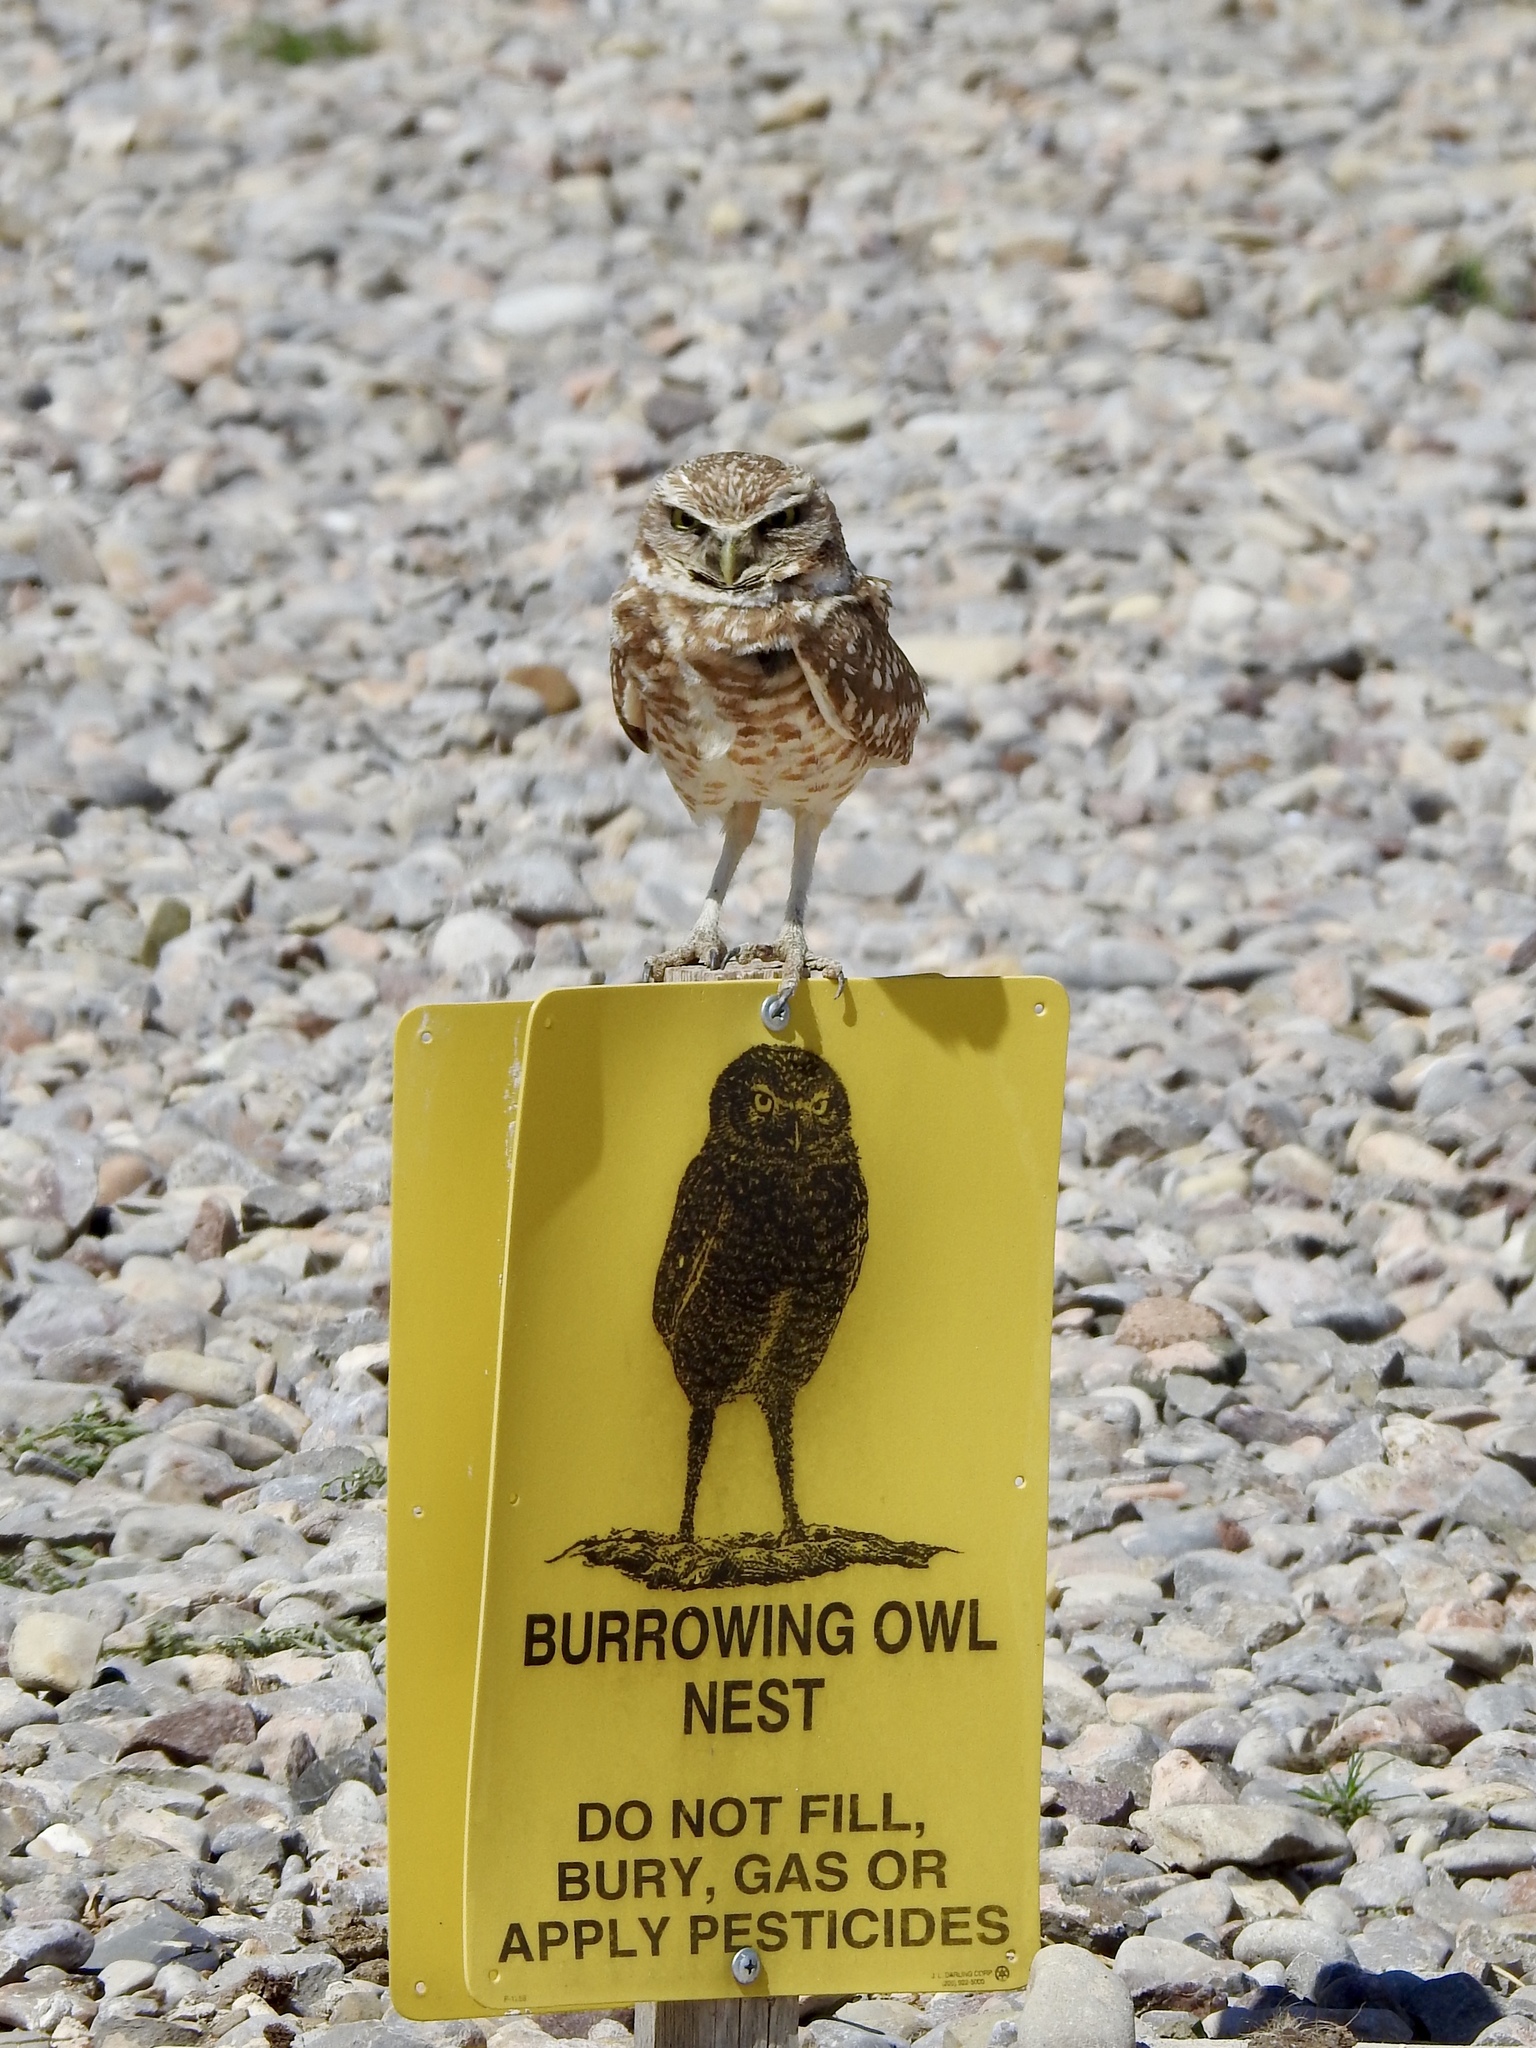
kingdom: Animalia
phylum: Chordata
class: Aves
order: Strigiformes
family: Strigidae
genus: Athene
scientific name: Athene cunicularia
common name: Burrowing owl
